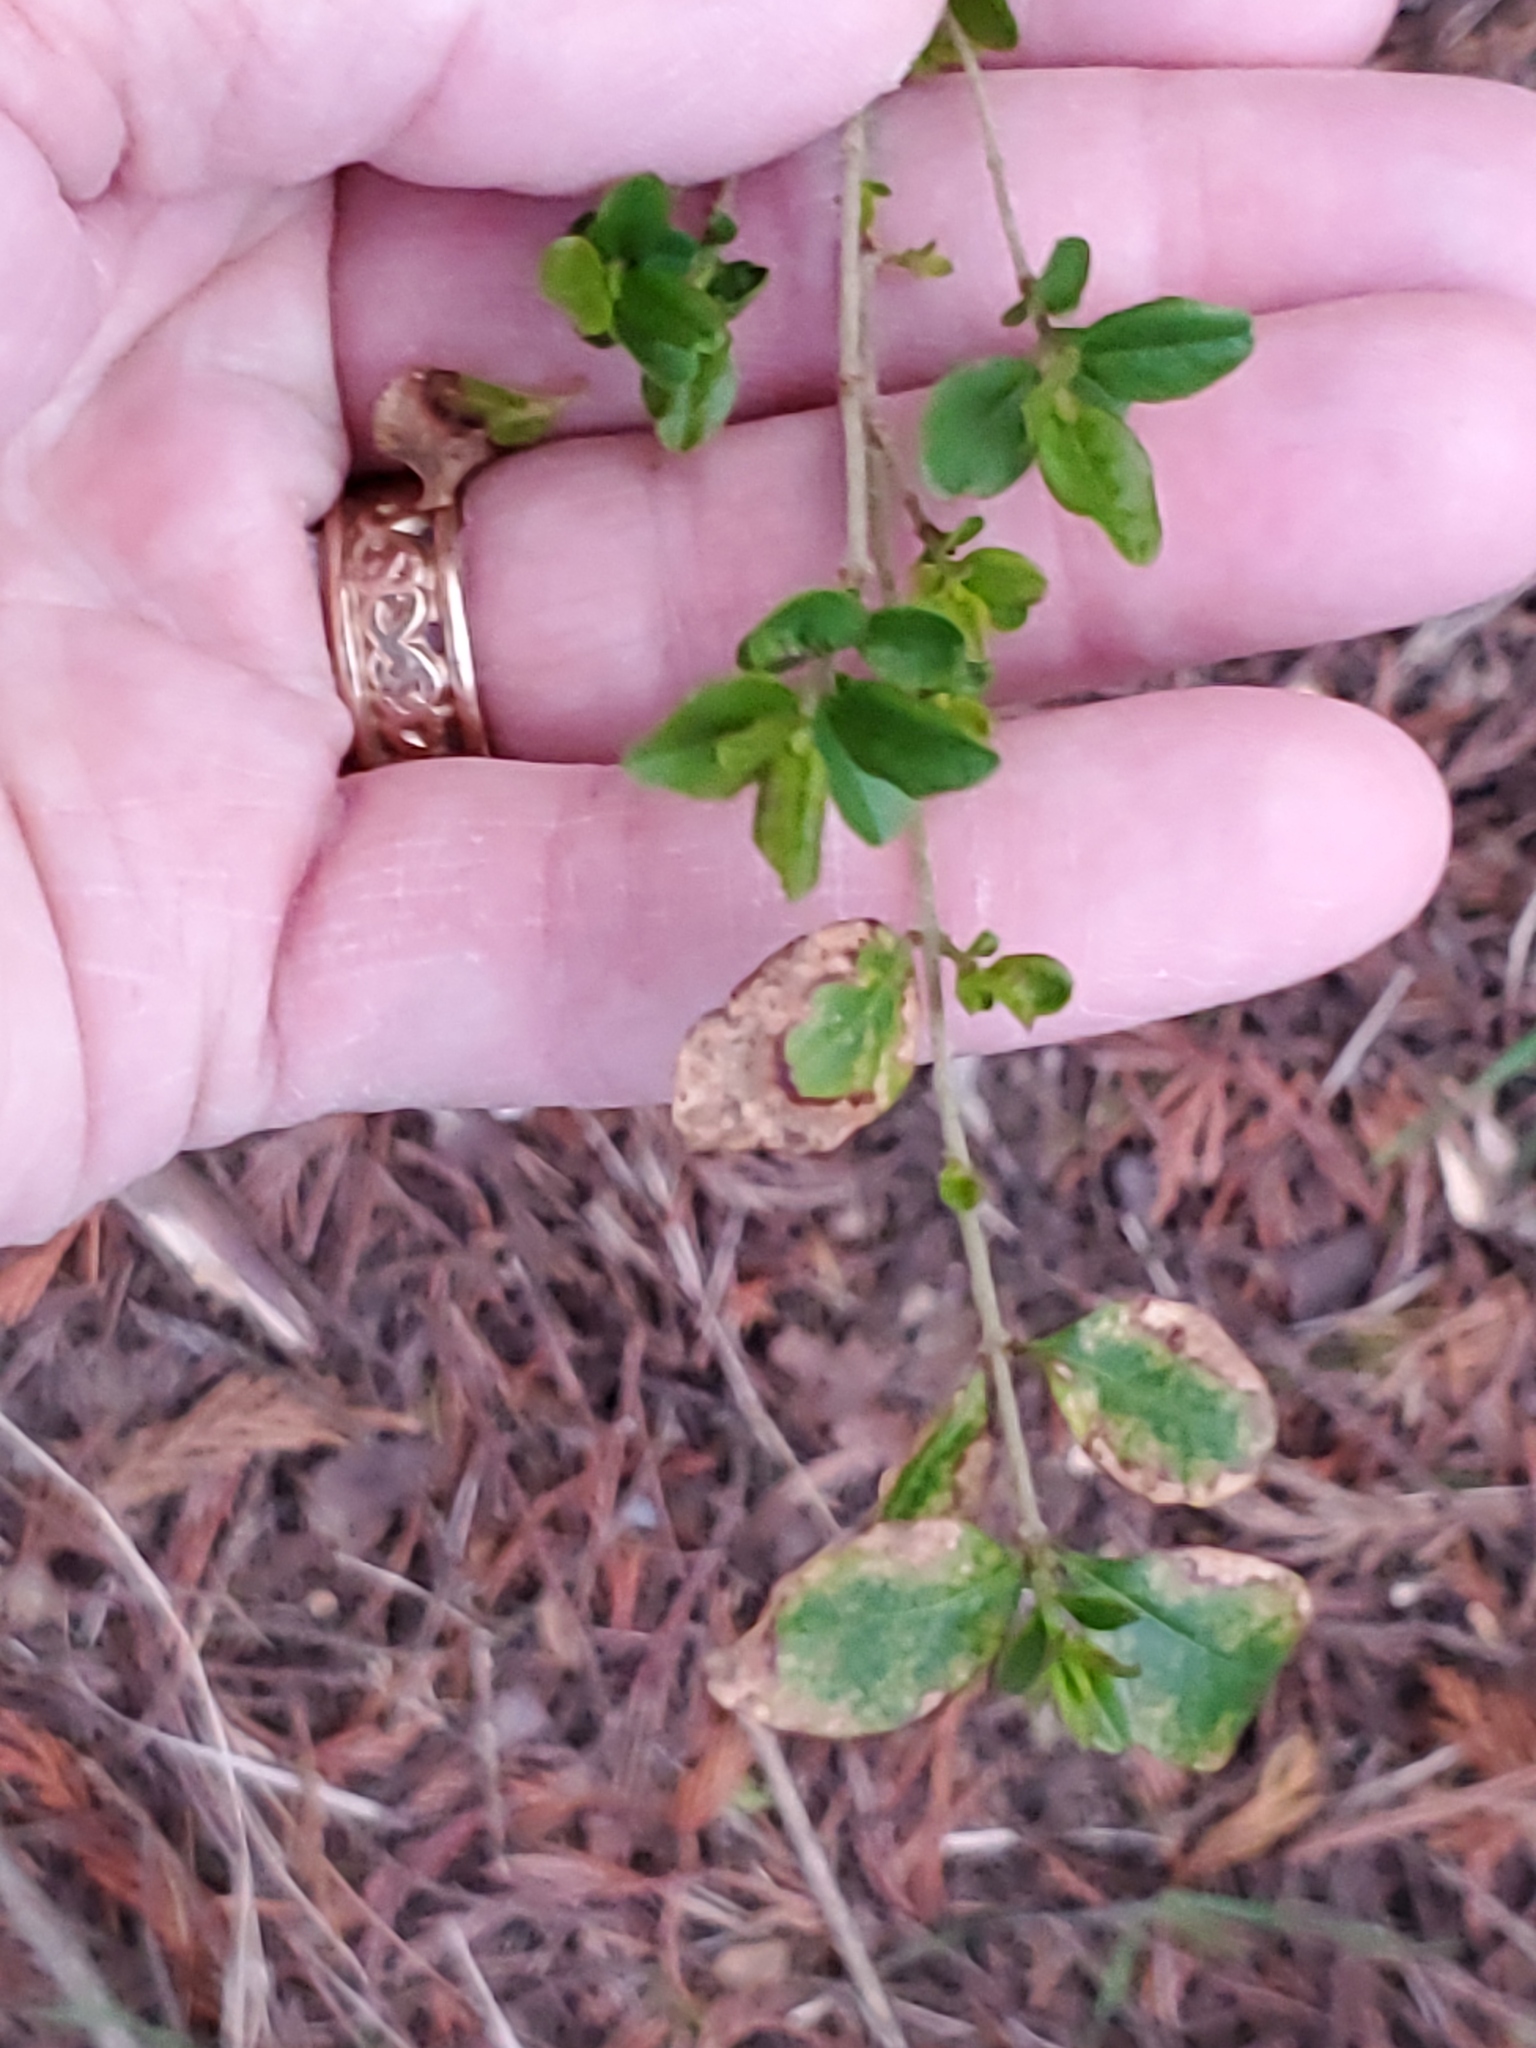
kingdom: Plantae
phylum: Tracheophyta
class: Magnoliopsida
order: Lamiales
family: Oleaceae
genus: Ligustrum
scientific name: Ligustrum sinense
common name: Chinese privet
